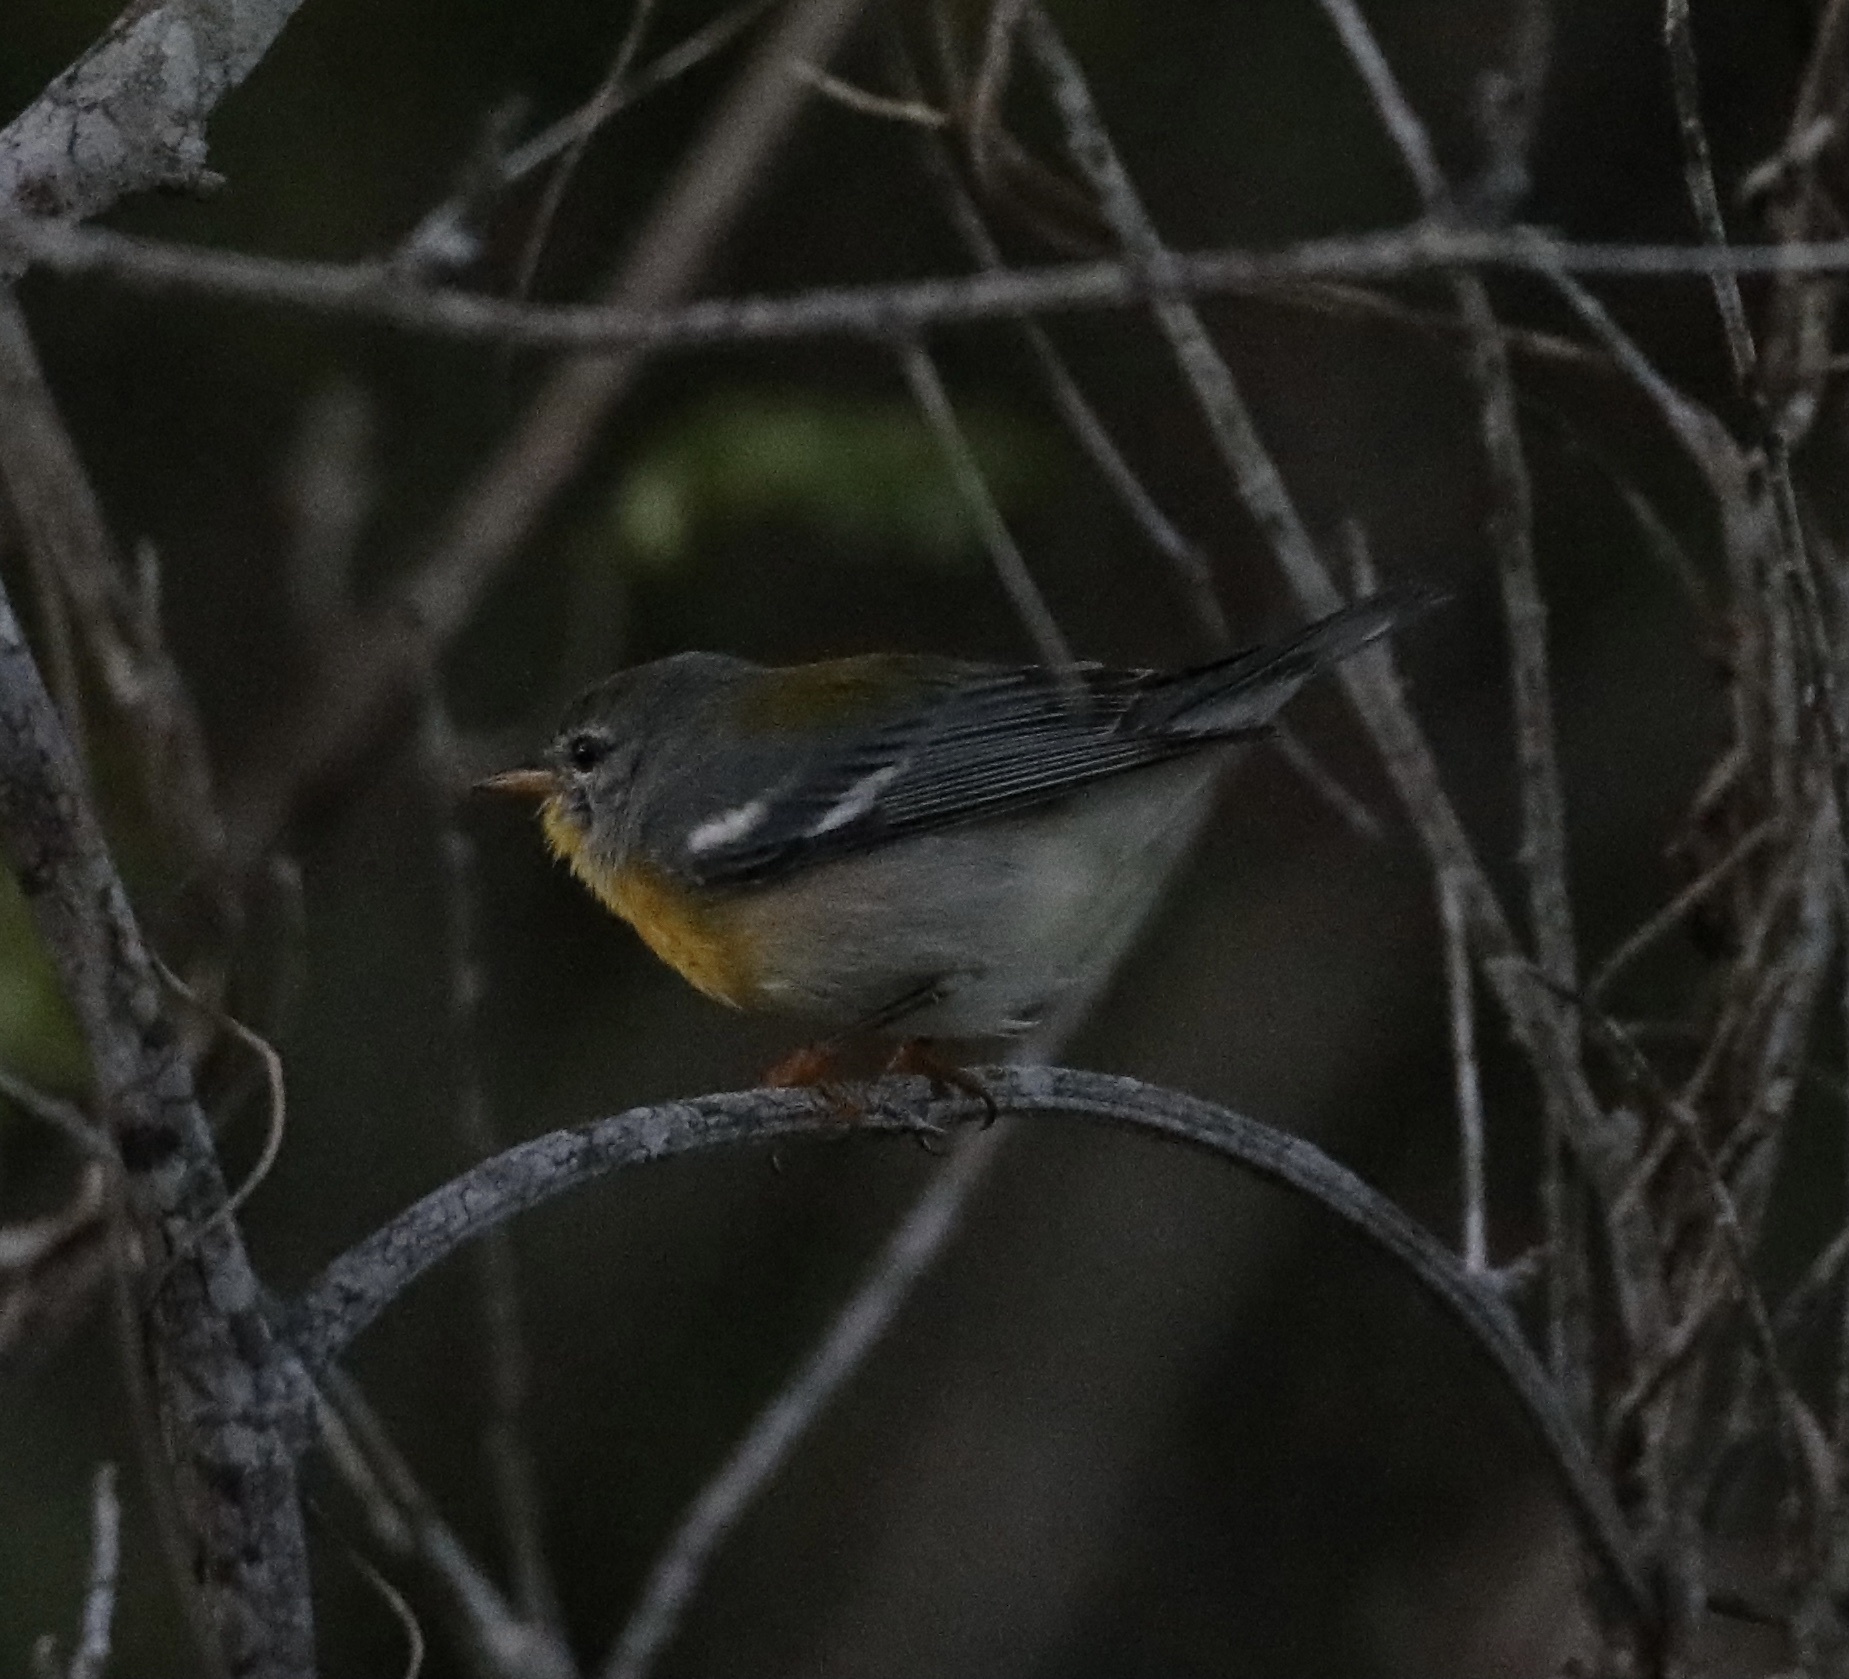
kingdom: Animalia
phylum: Chordata
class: Aves
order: Passeriformes
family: Parulidae
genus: Setophaga
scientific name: Setophaga americana
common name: Northern parula
